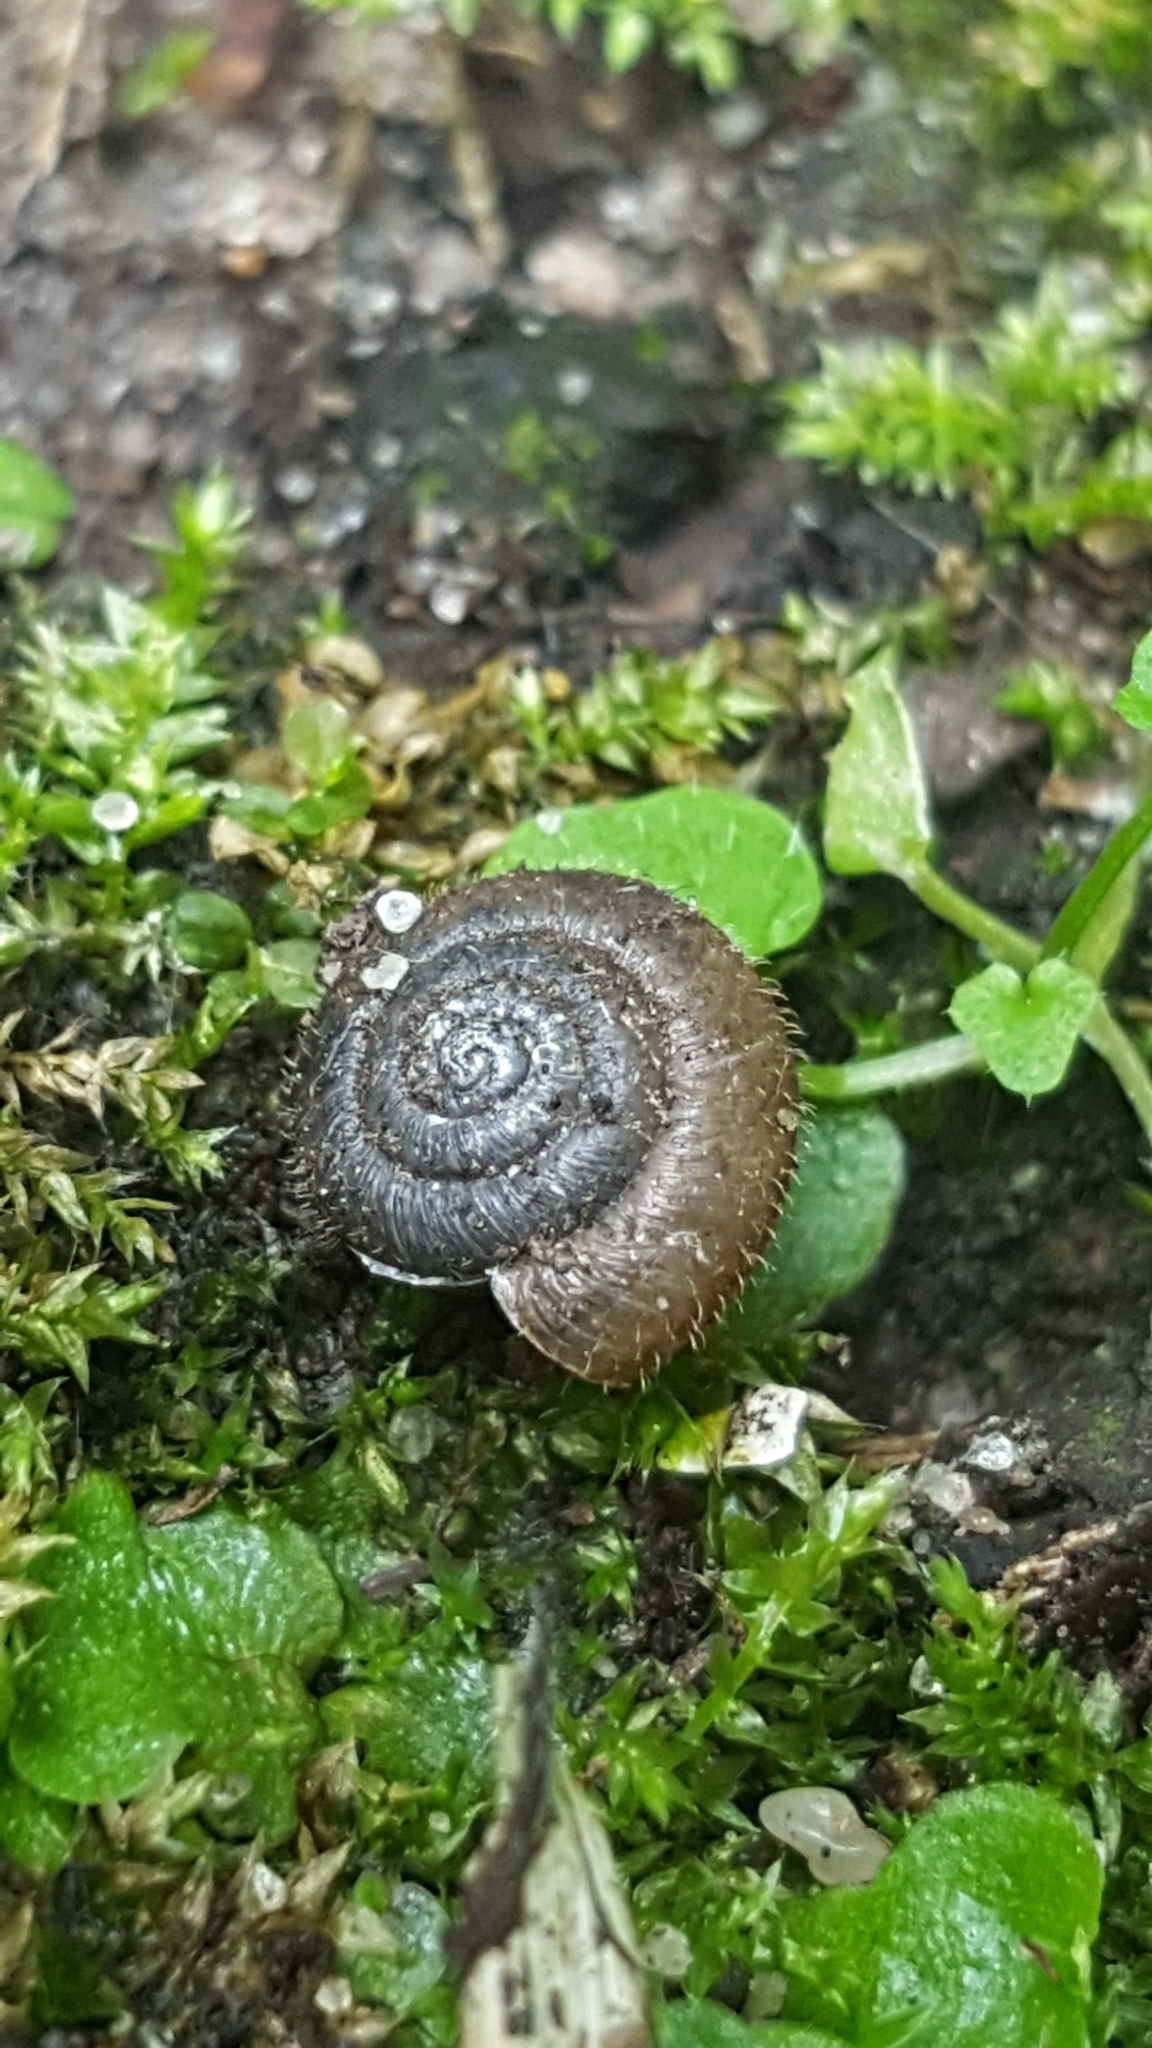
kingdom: Animalia
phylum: Mollusca
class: Gastropoda
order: Stylommatophora
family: Hygromiidae
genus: Trochulus
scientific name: Trochulus hispidus
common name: Hairy snail
